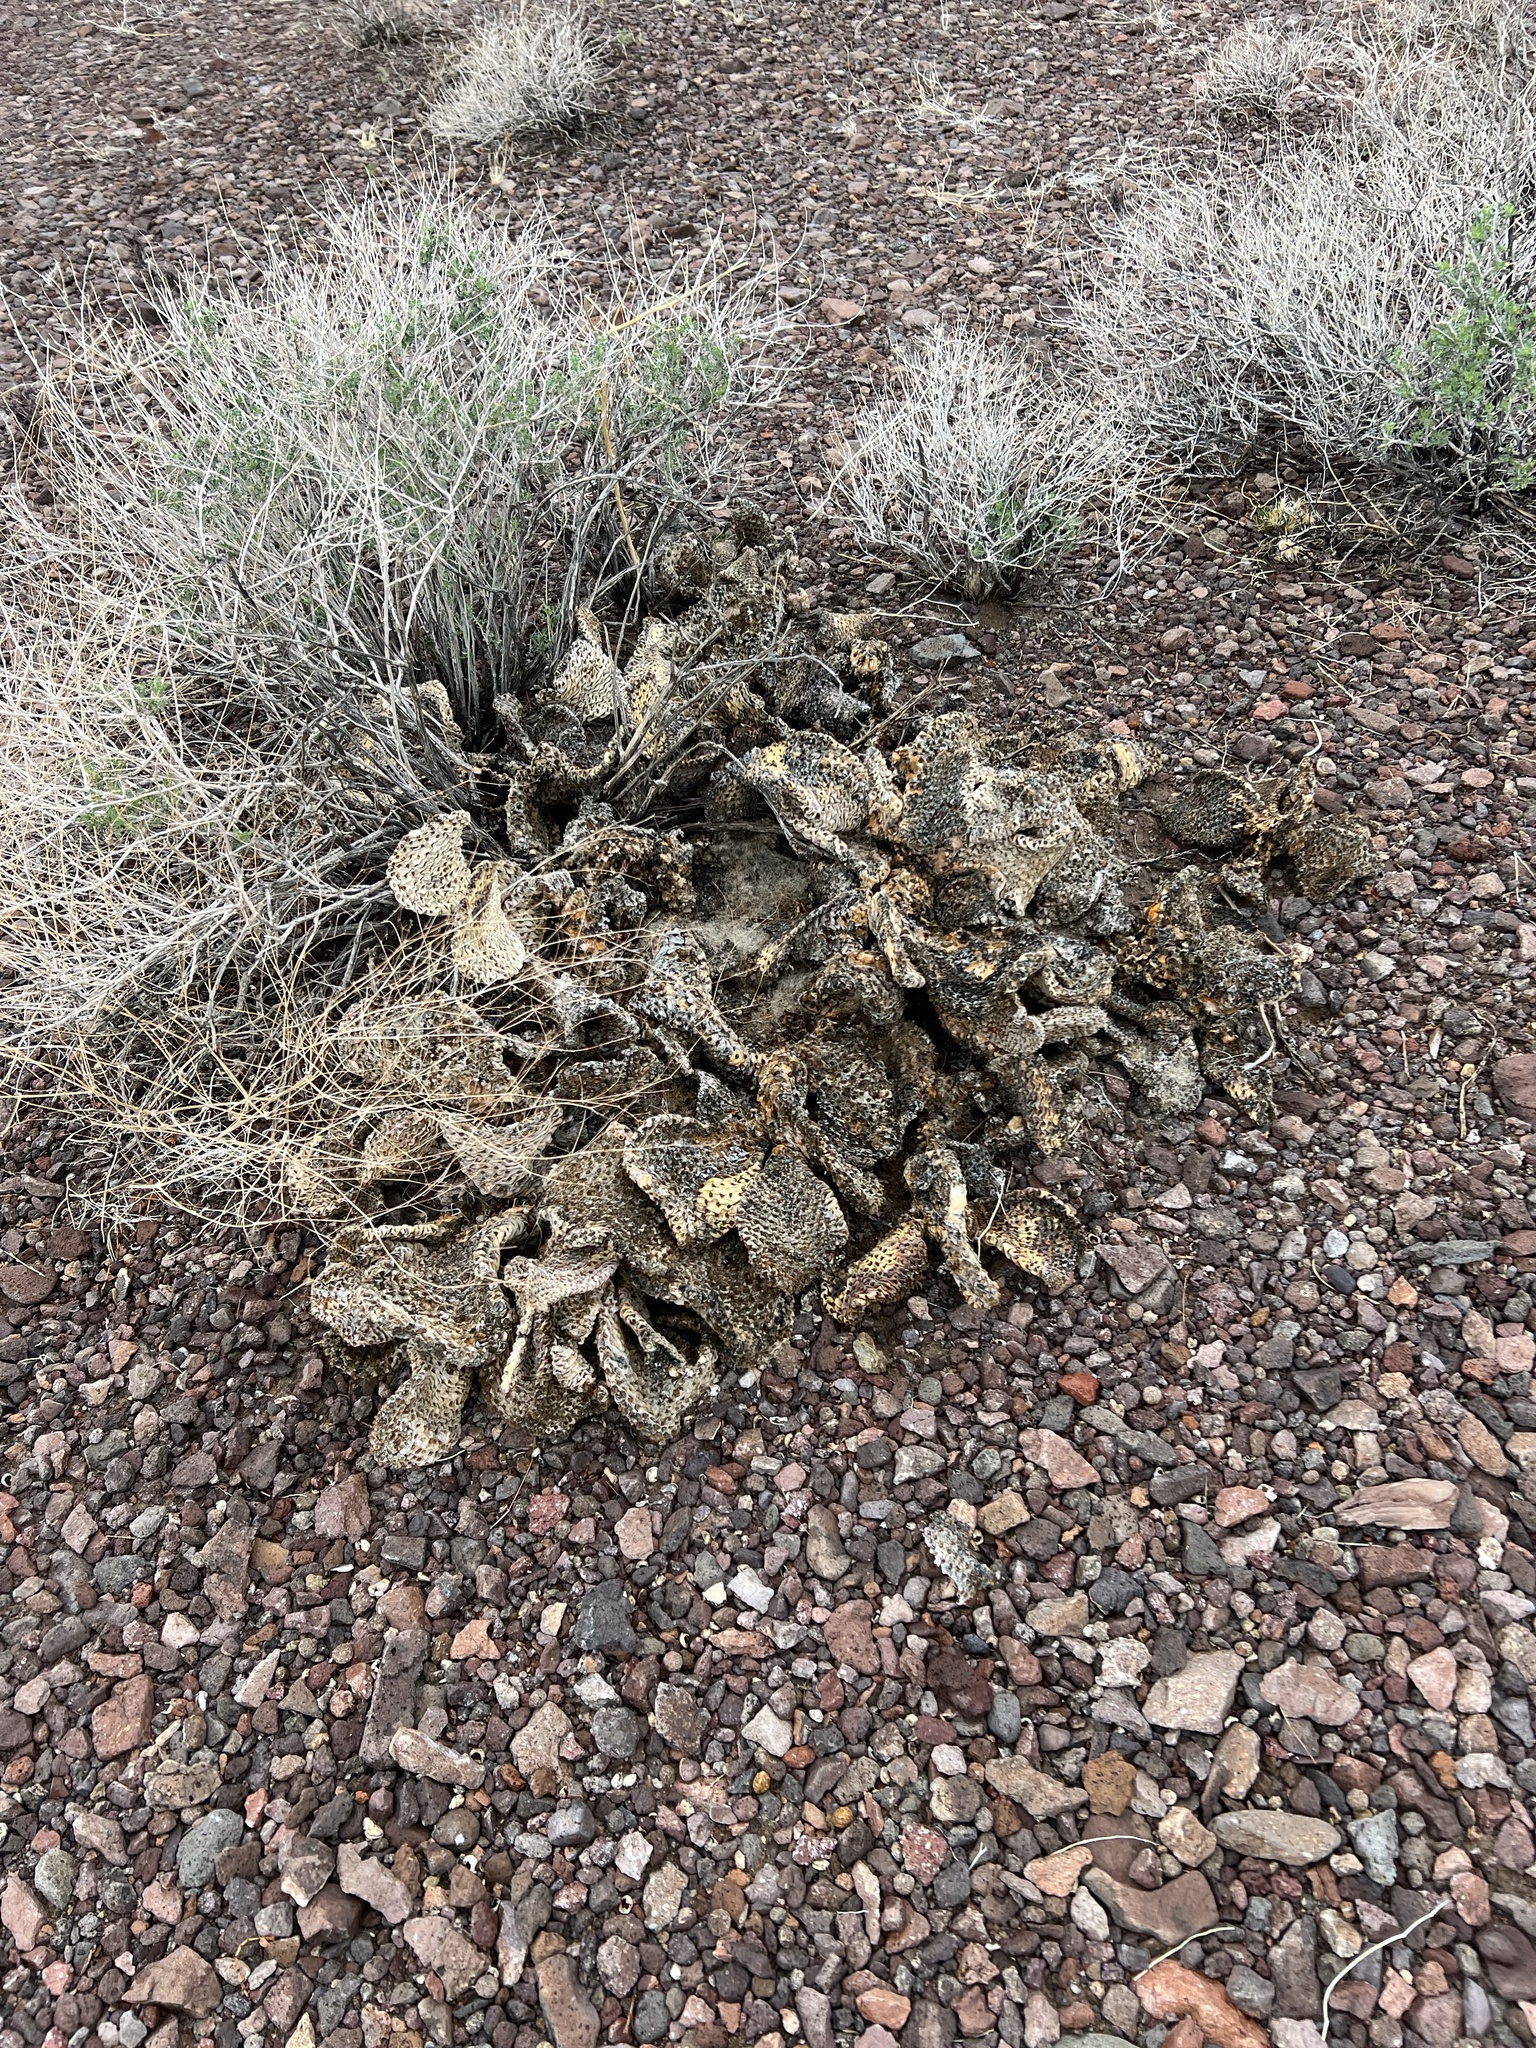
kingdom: Plantae
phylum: Tracheophyta
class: Magnoliopsida
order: Caryophyllales
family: Cactaceae
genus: Opuntia
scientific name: Opuntia basilaris
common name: Beavertail prickly-pear
